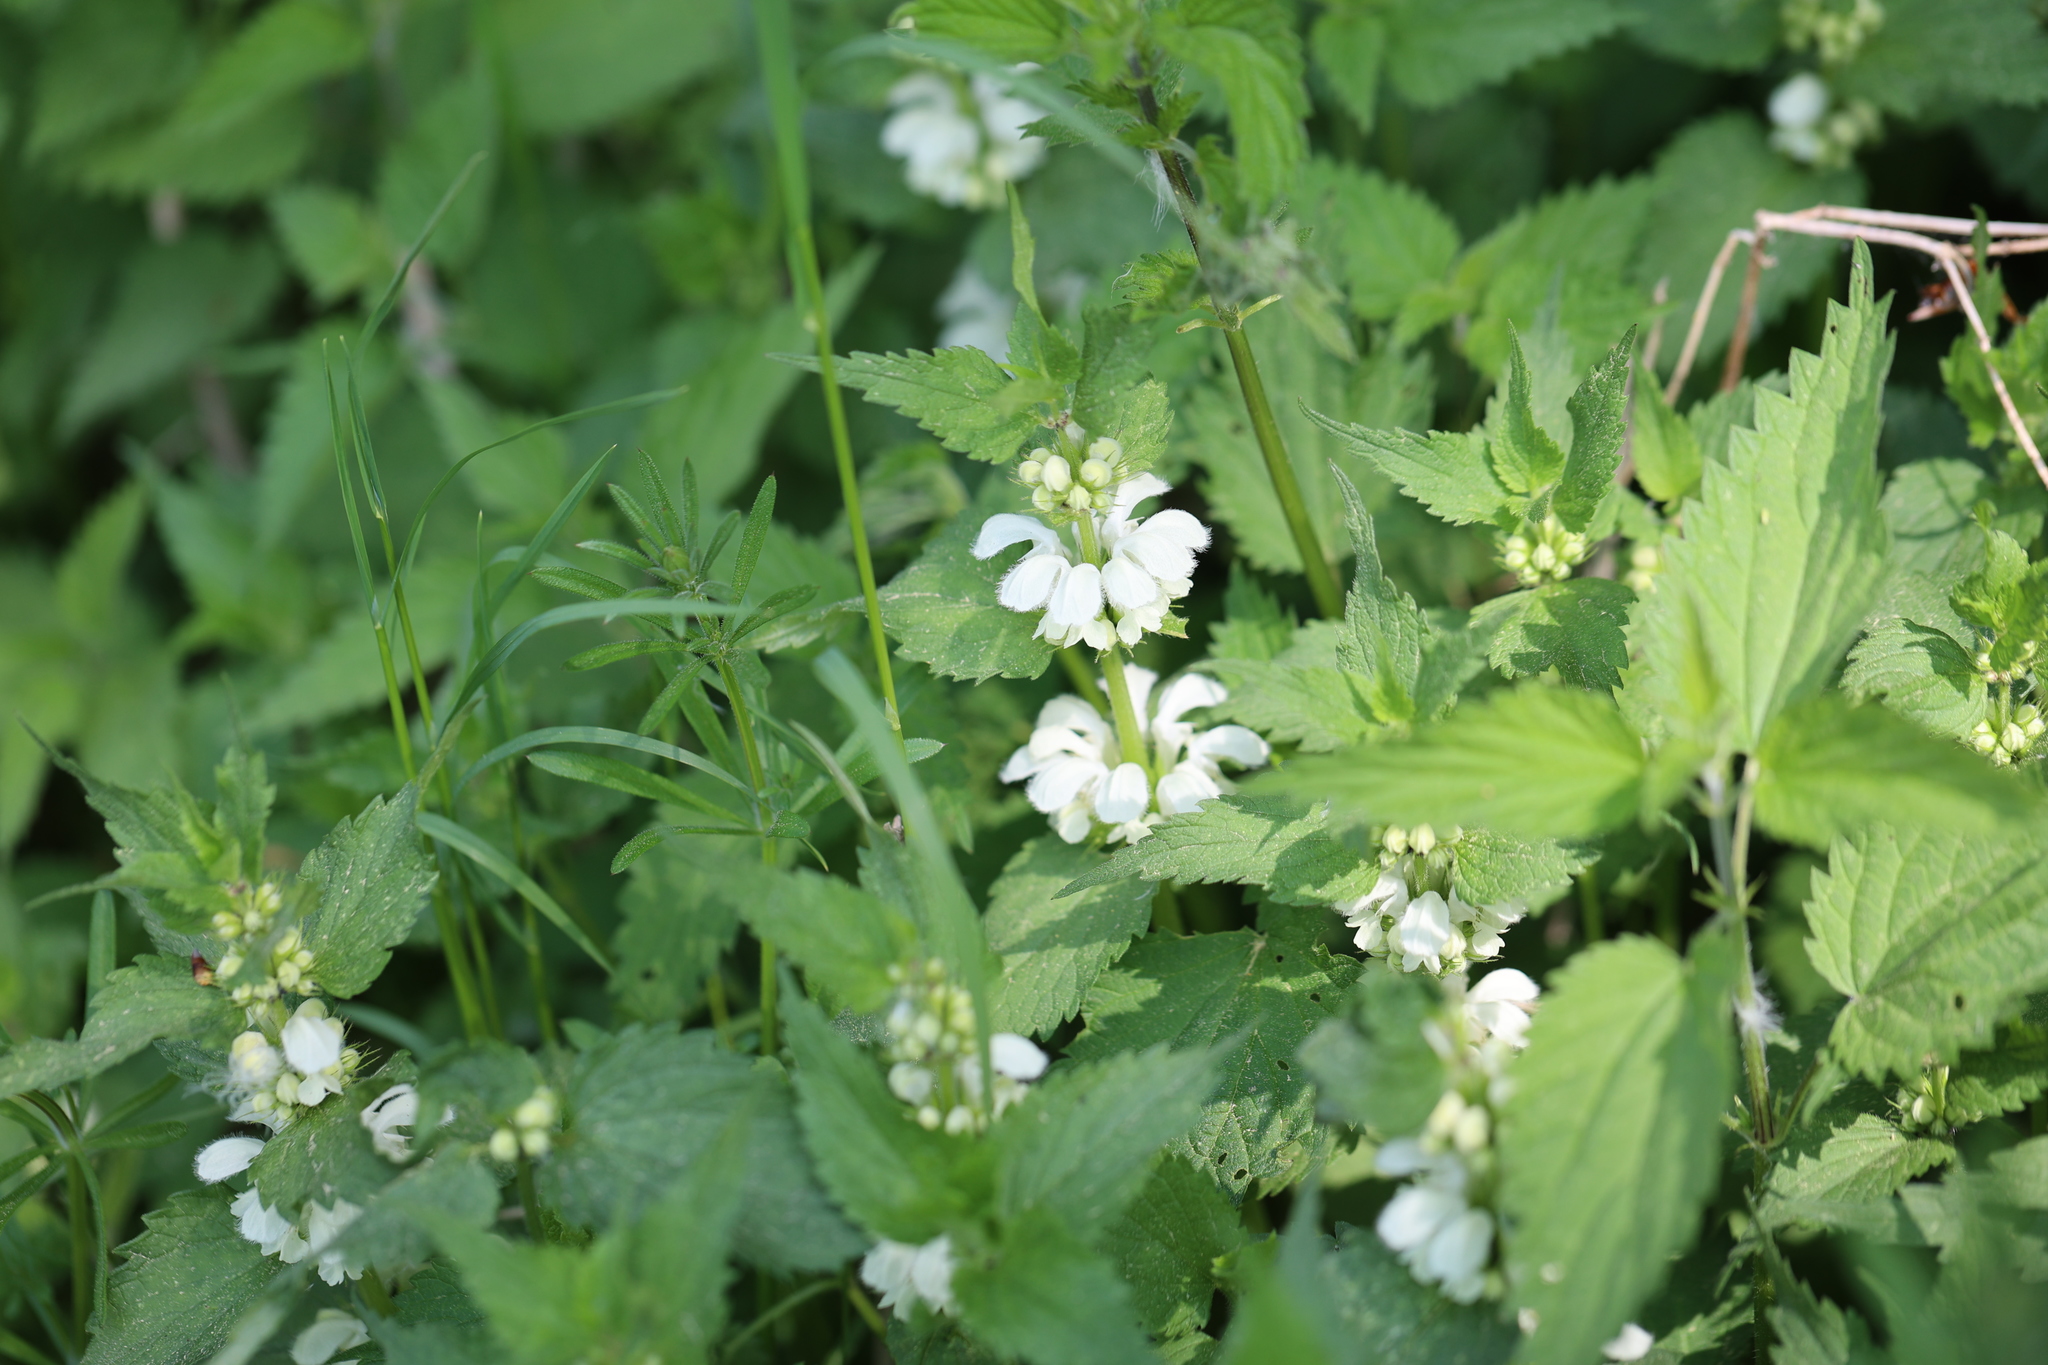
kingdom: Plantae
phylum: Tracheophyta
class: Magnoliopsida
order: Lamiales
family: Lamiaceae
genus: Lamium
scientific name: Lamium album
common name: White dead-nettle
